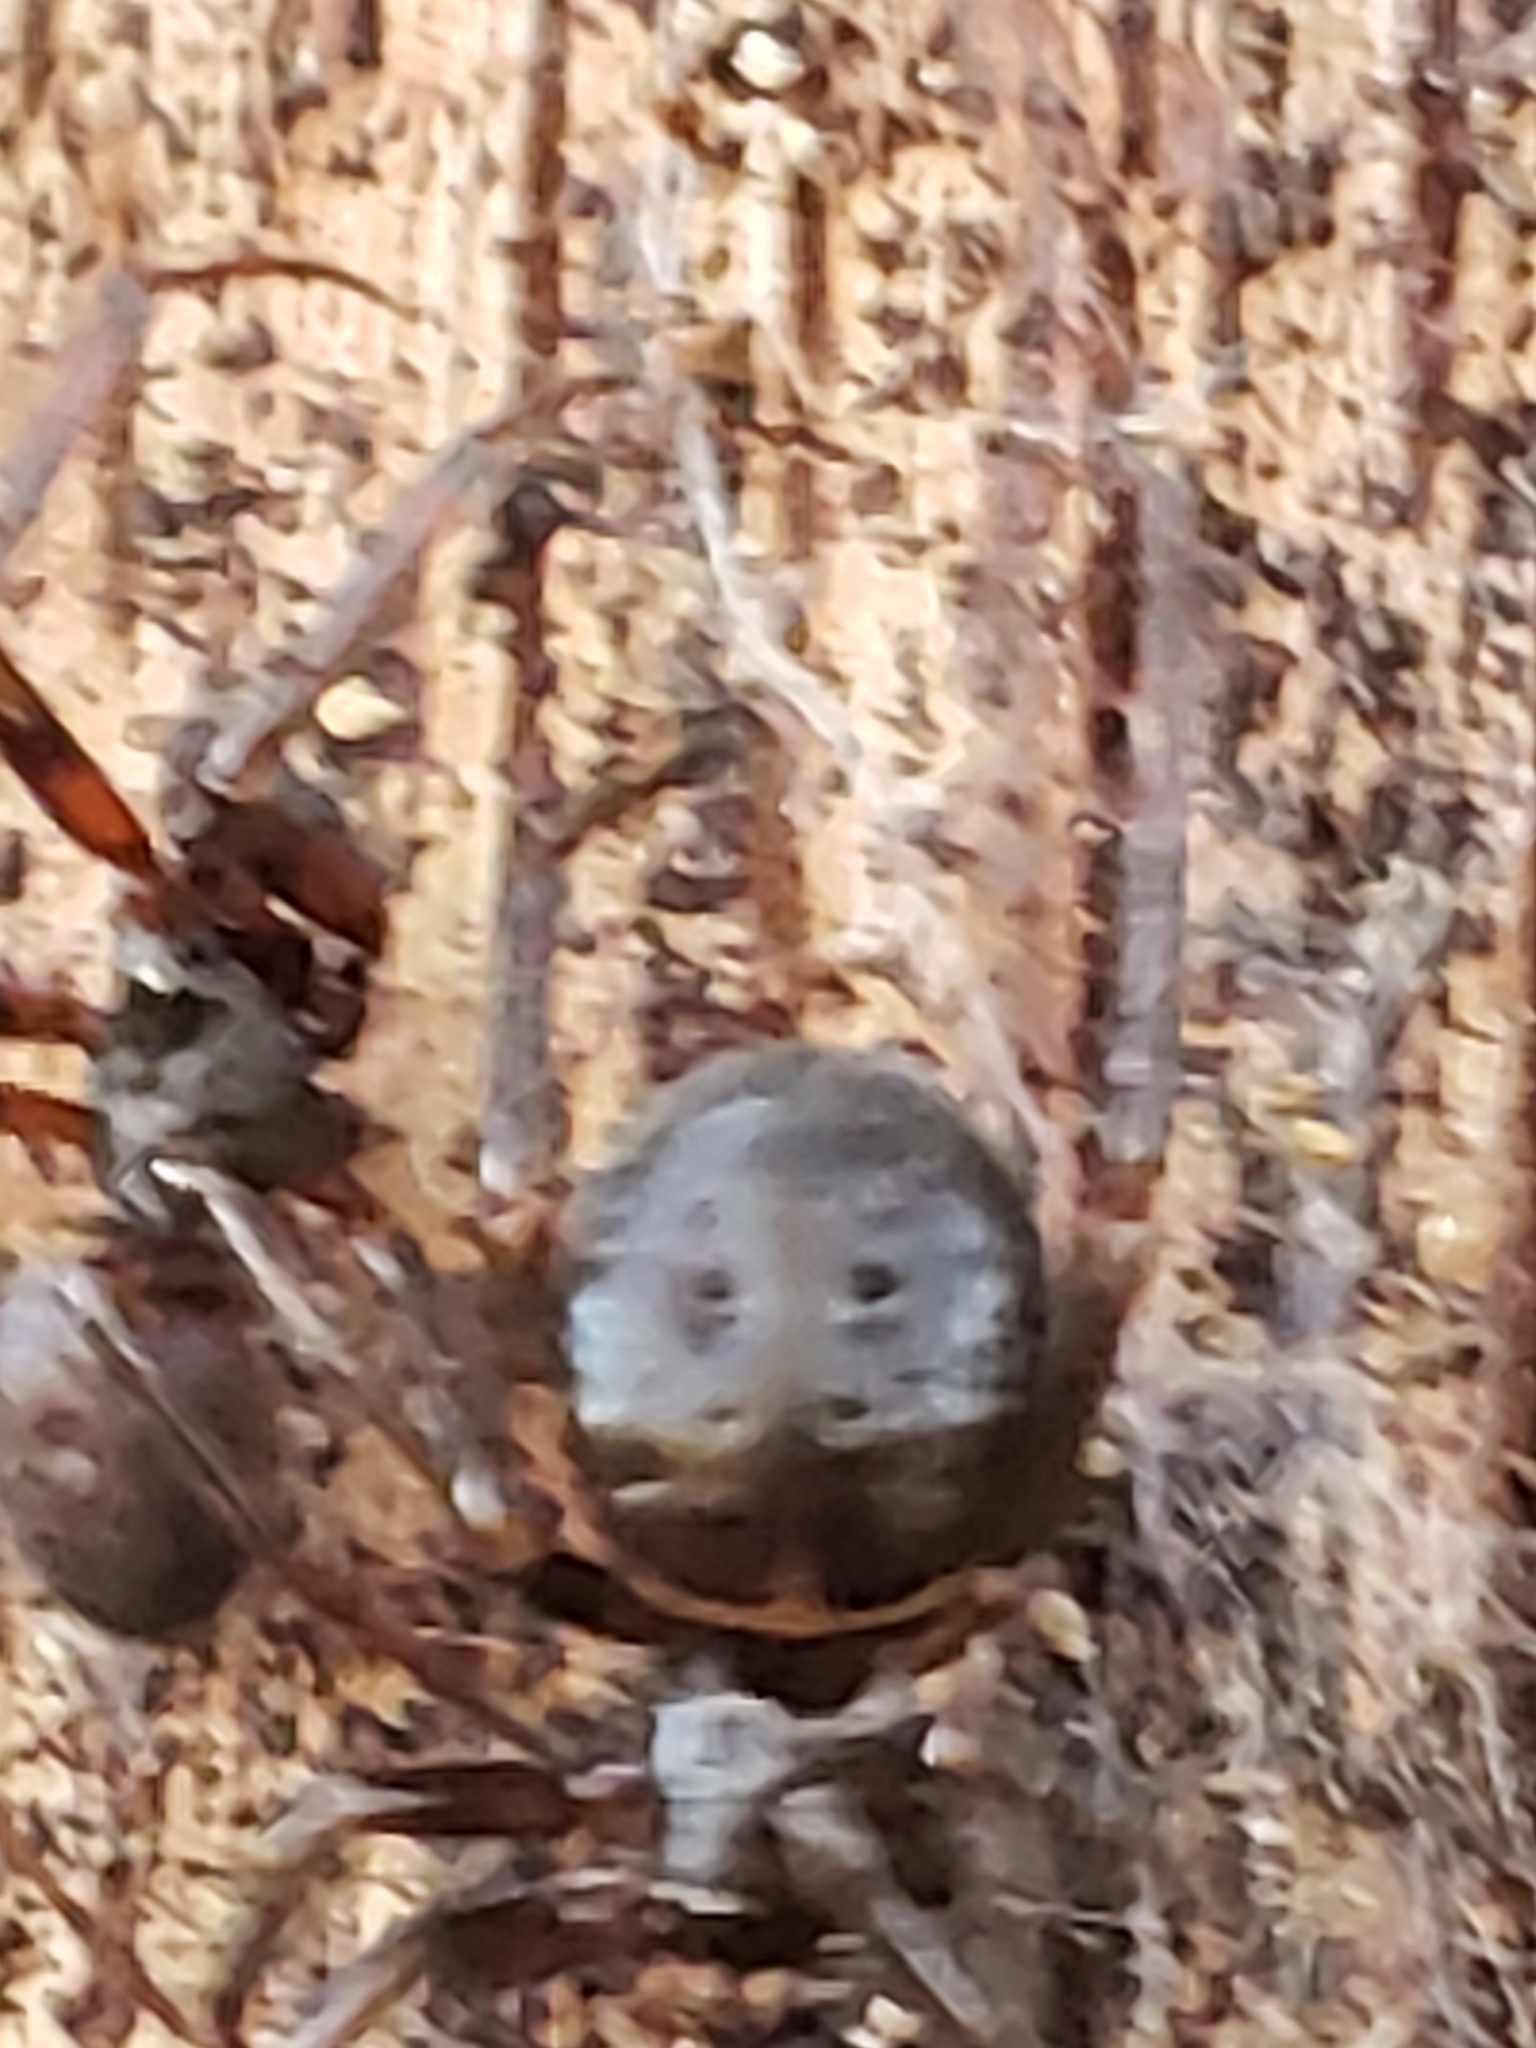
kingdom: Animalia
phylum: Arthropoda
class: Arachnida
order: Araneae
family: Theridiidae
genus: Steatoda
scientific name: Steatoda borealis
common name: Boreal combfoot
